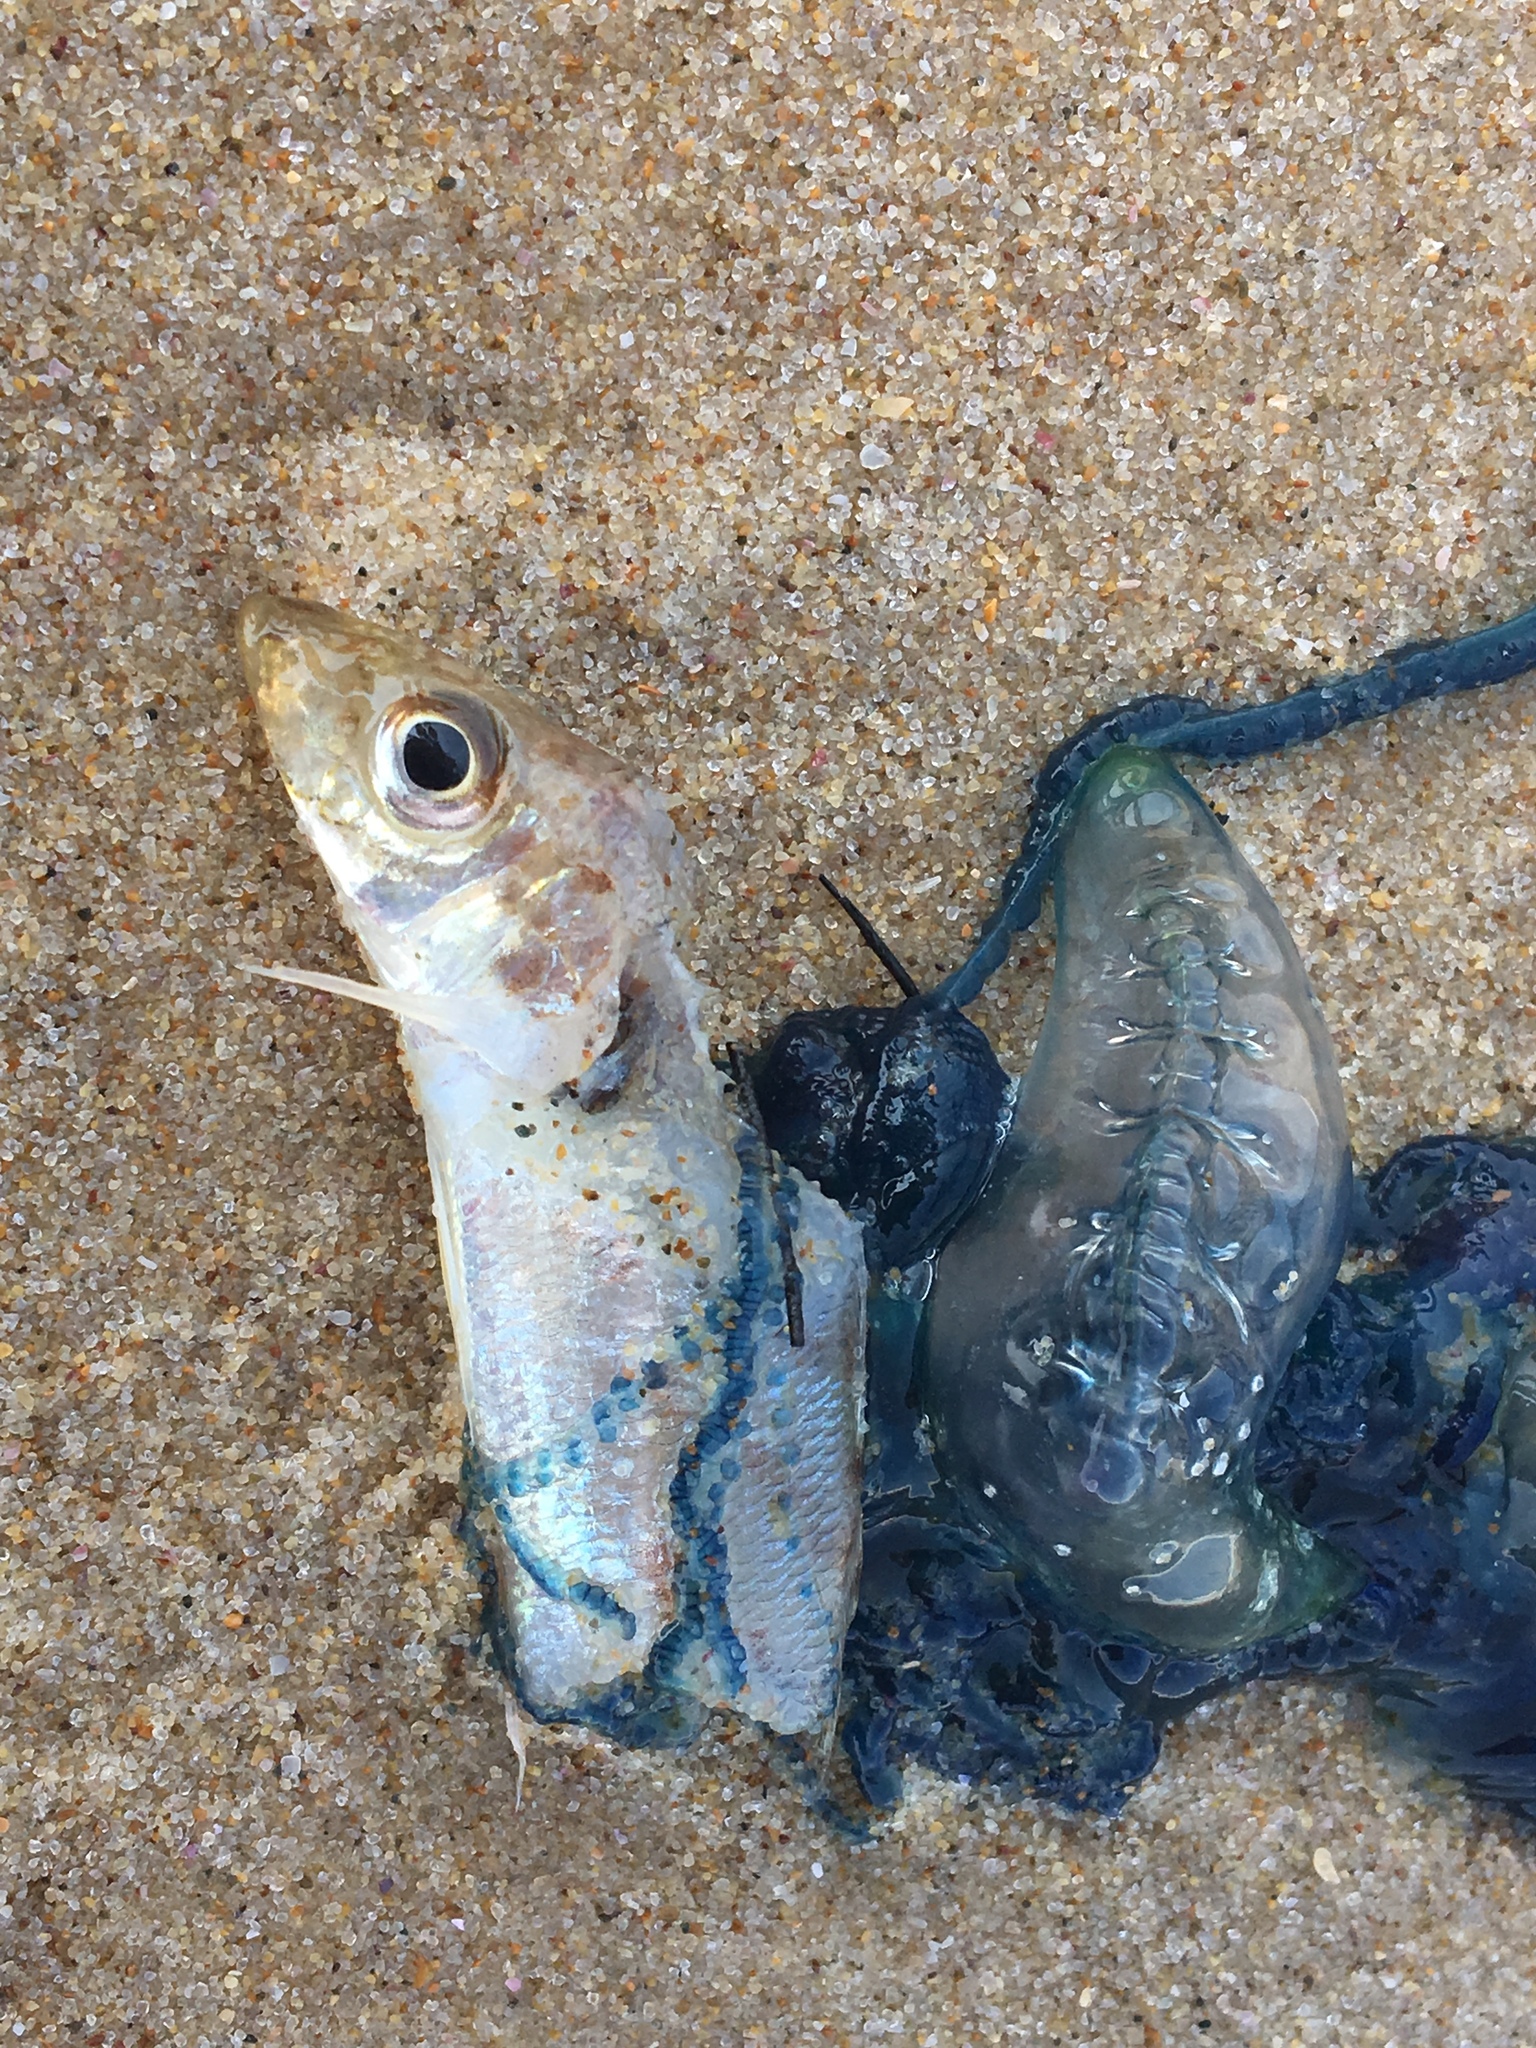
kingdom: Animalia
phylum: Chordata
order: Perciformes
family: Sillaginidae
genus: Sillago
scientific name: Sillago ciliata
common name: Sand sillago
